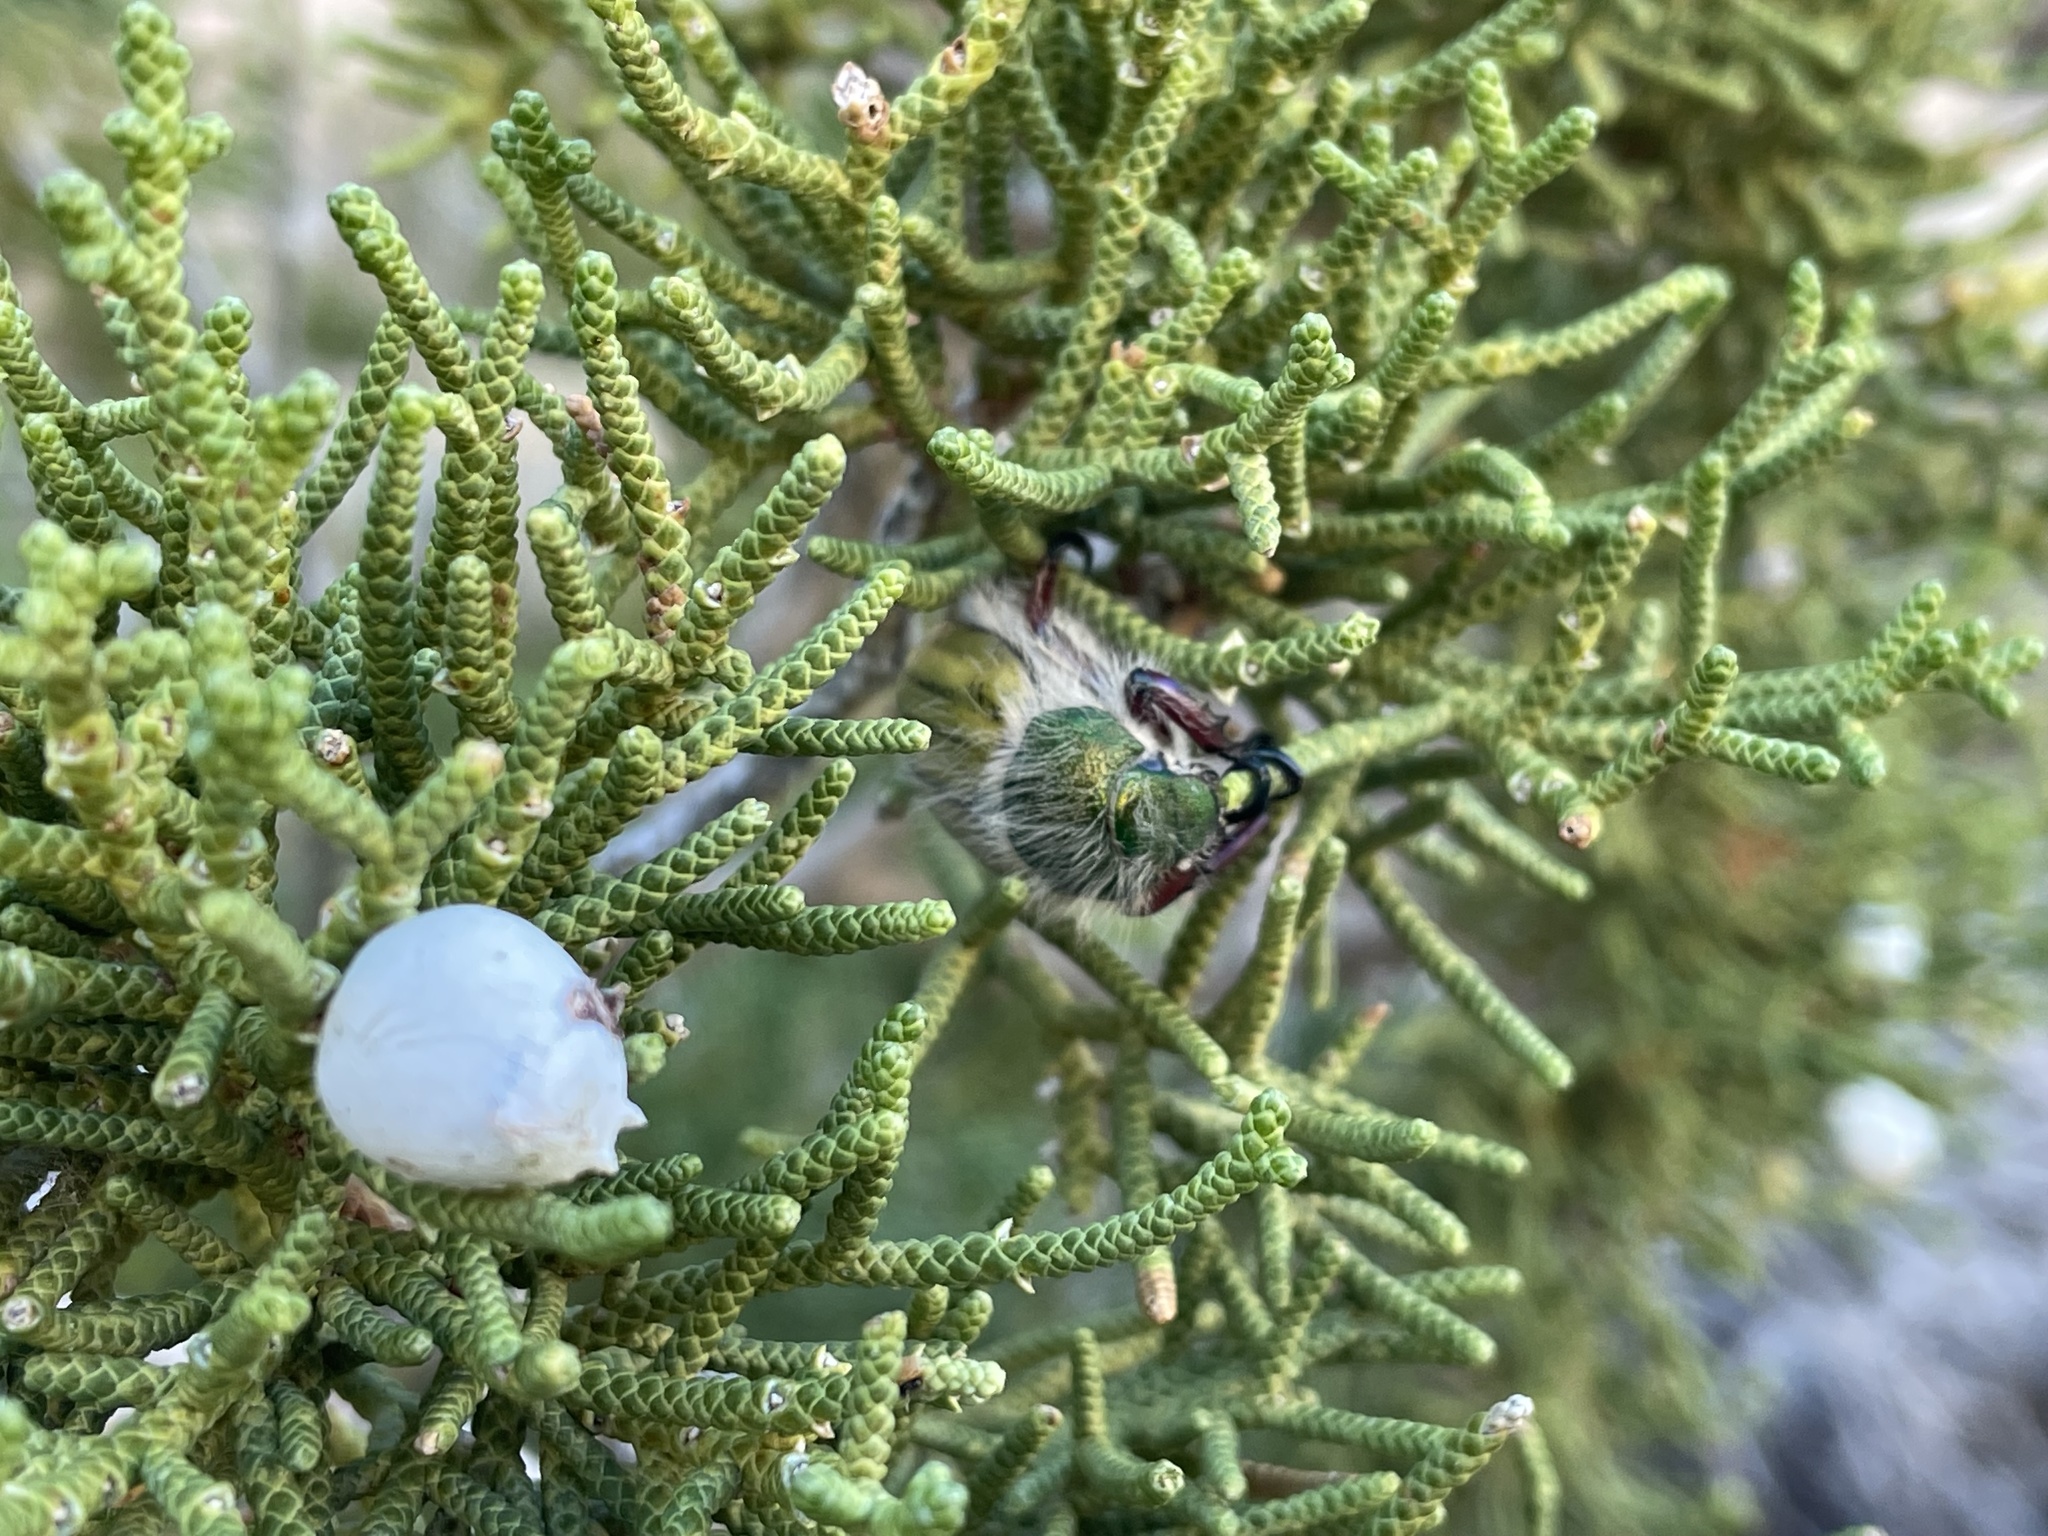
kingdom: Animalia
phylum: Arthropoda
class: Insecta
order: Coleoptera
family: Scarabaeidae
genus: Paracotalpa
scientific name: Paracotalpa puncticollis
